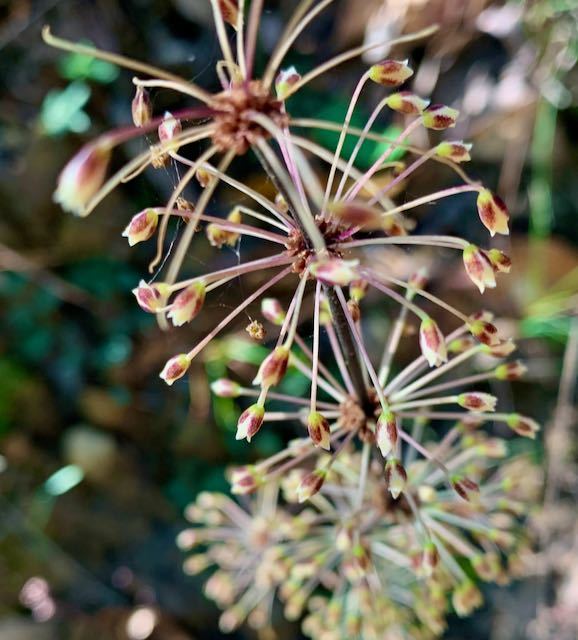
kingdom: Plantae
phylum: Tracheophyta
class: Liliopsida
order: Asparagales
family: Asparagaceae
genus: Lomandra
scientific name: Lomandra multiflora
